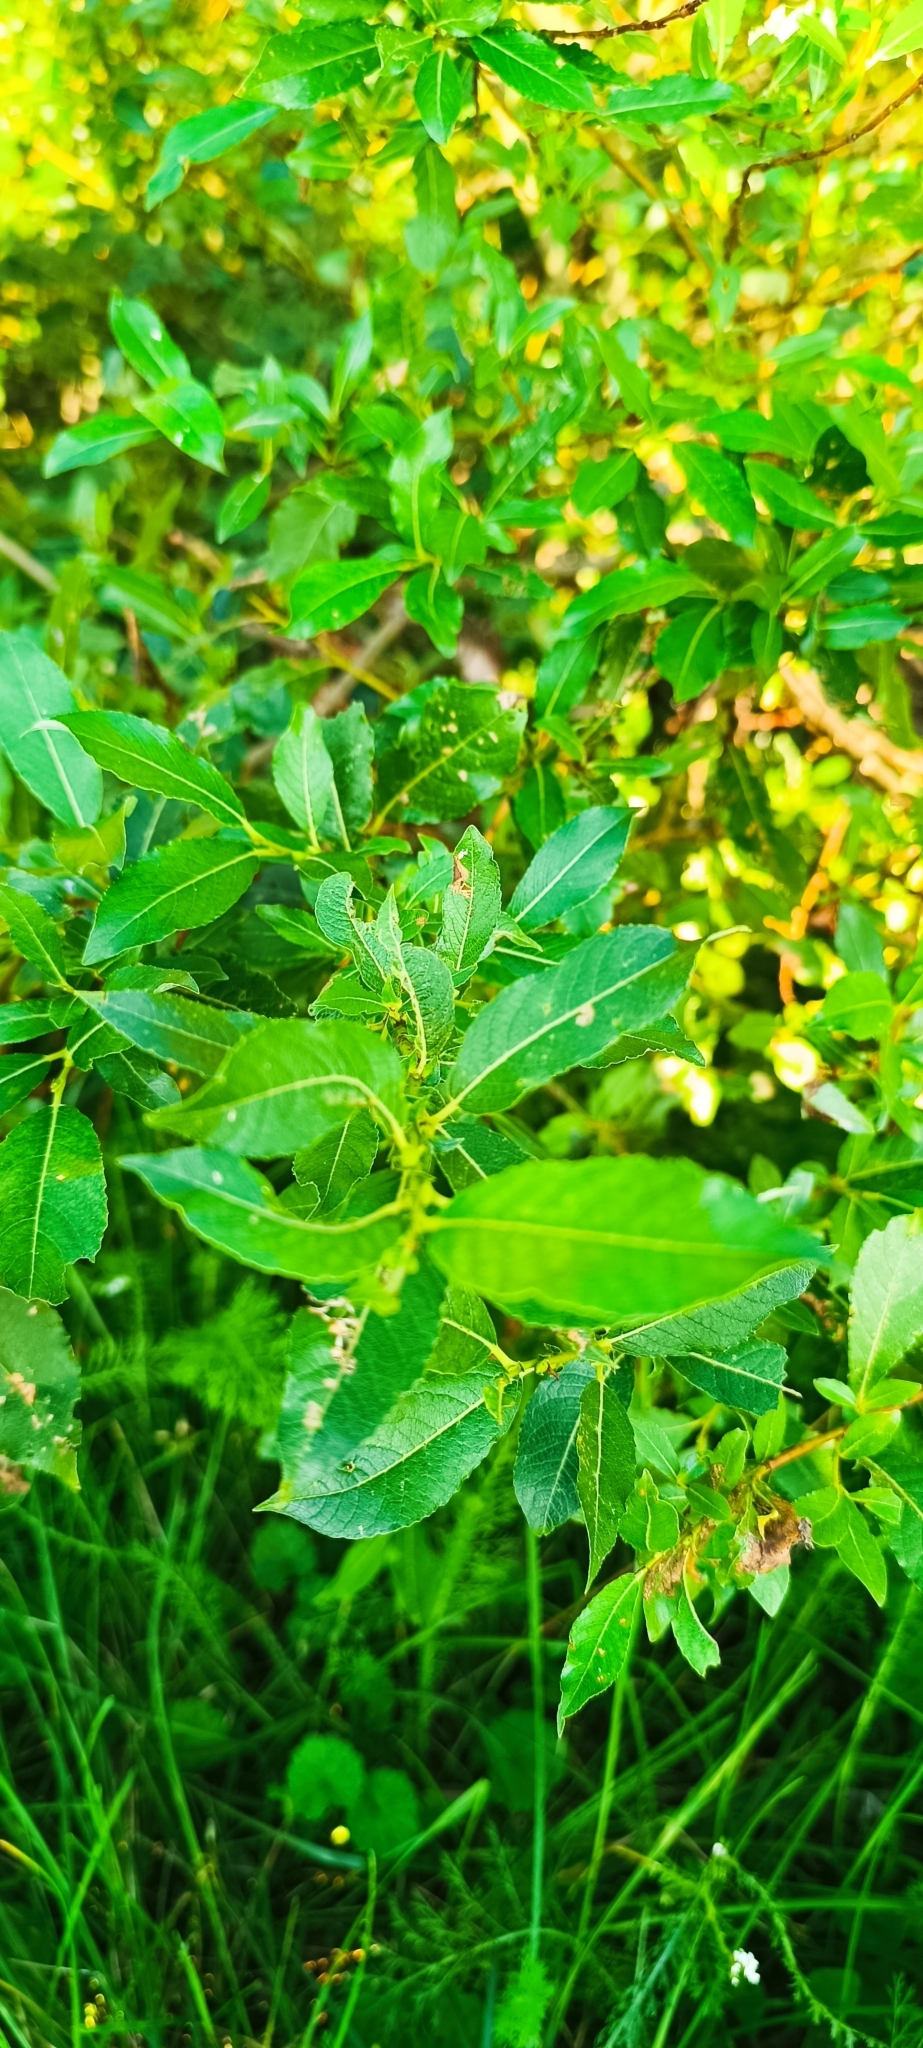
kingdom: Plantae
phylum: Tracheophyta
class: Magnoliopsida
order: Malpighiales
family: Salicaceae
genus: Salix
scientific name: Salix triandra
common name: Almond willow
